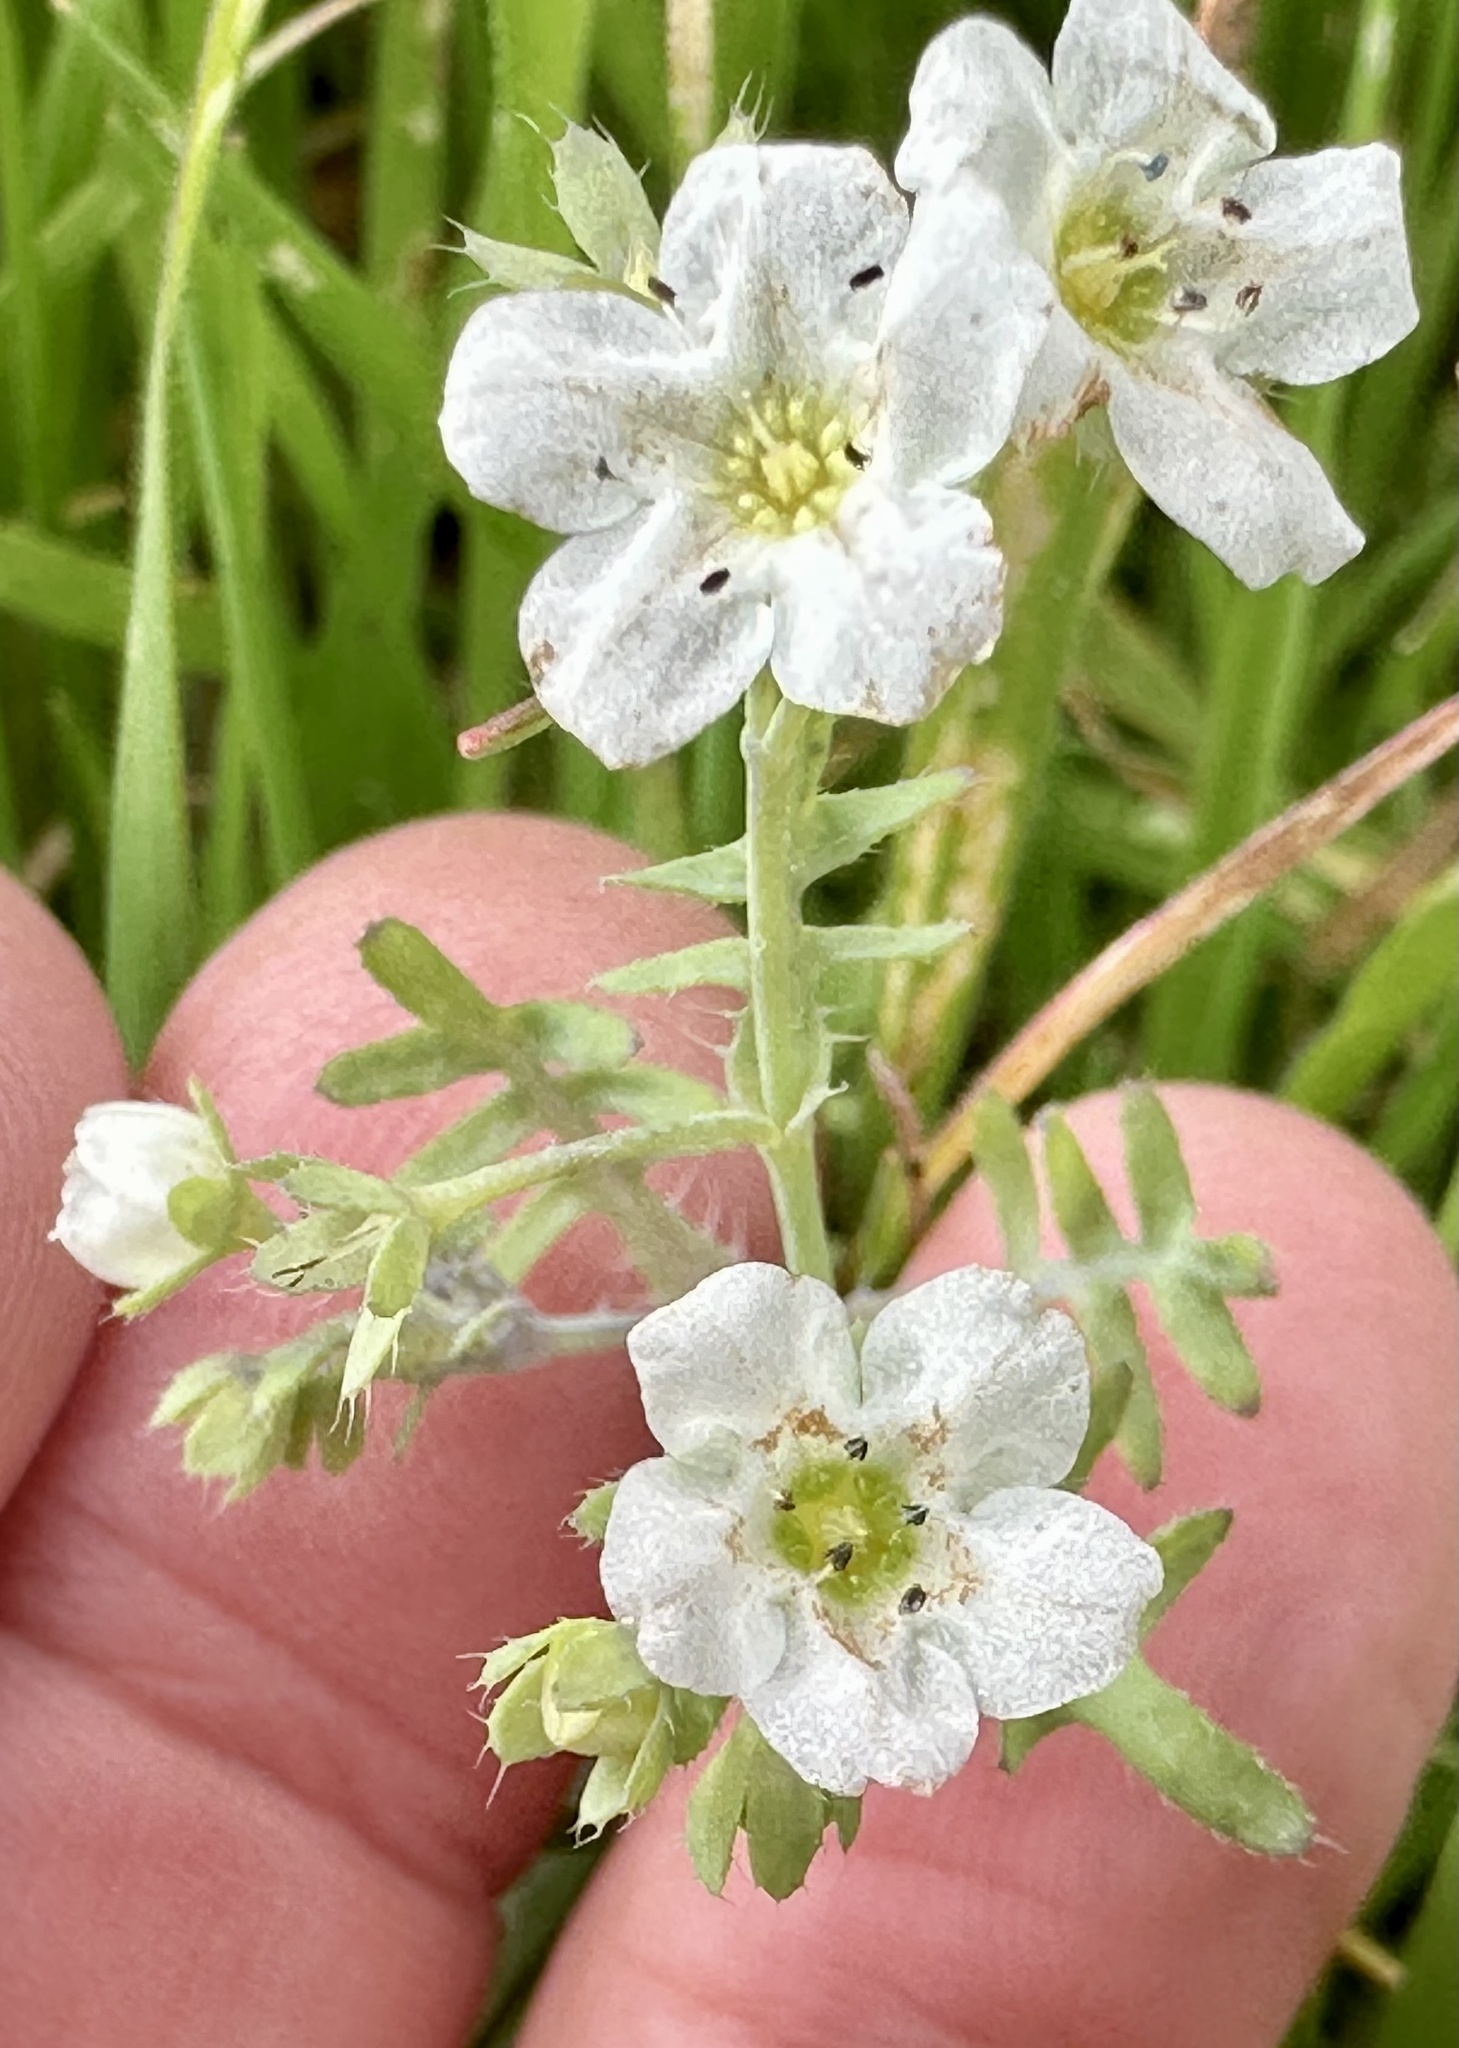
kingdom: Plantae
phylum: Tracheophyta
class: Magnoliopsida
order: Boraginales
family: Hydrophyllaceae
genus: Pholistoma
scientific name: Pholistoma membranaceum
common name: White fiesta-flower
